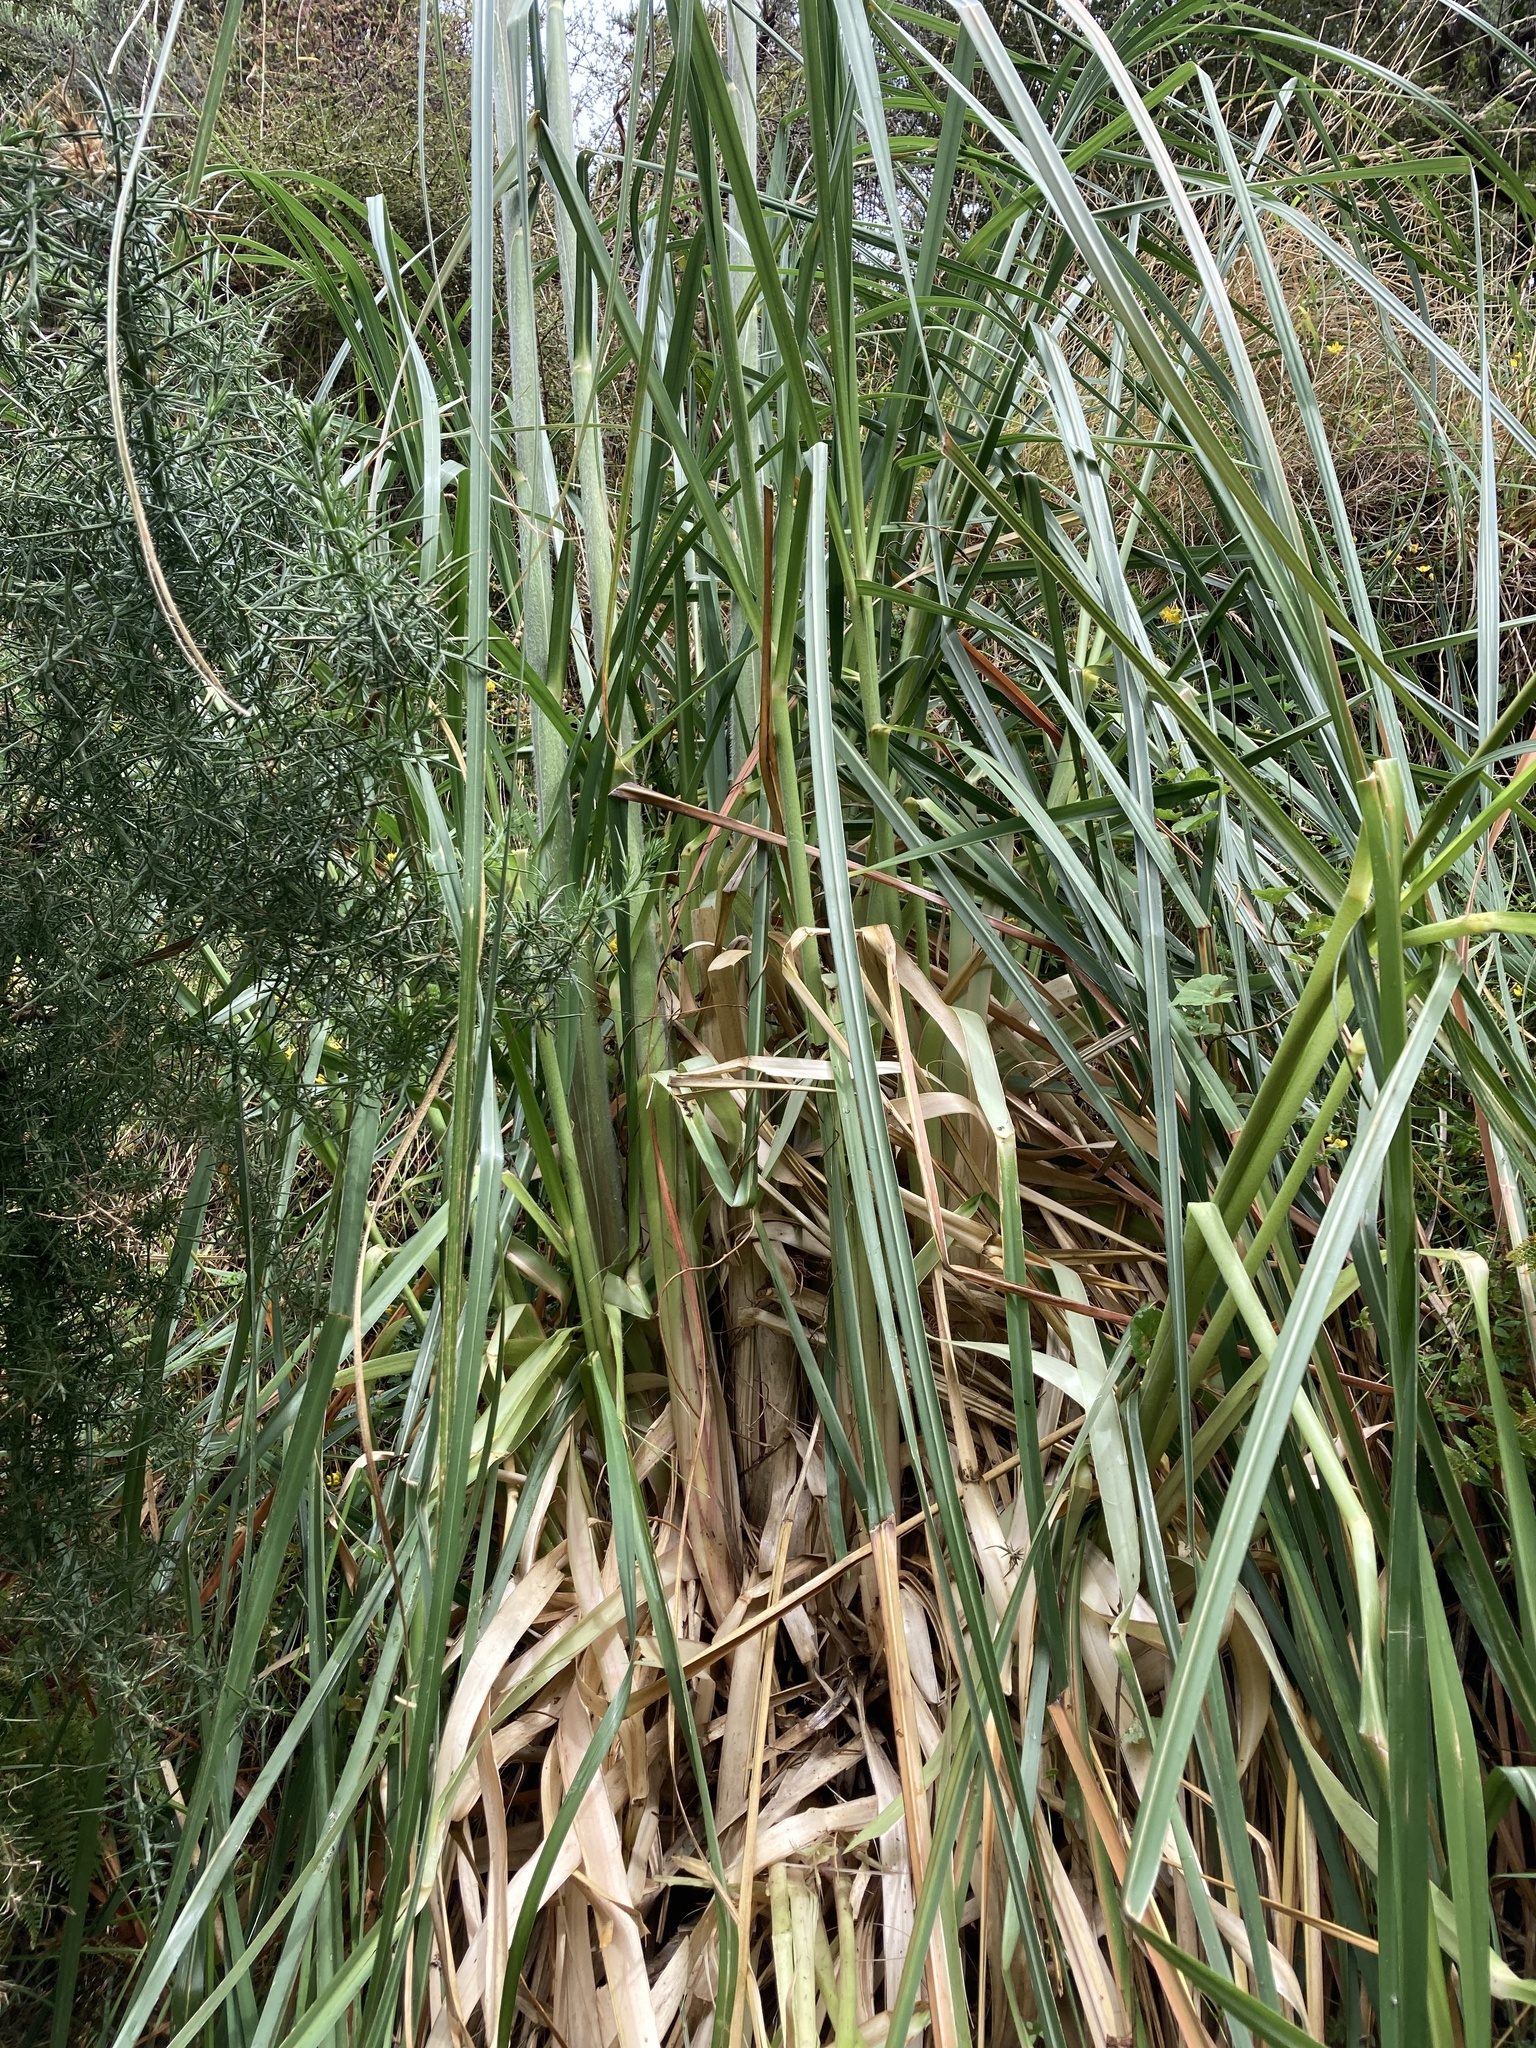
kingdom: Plantae
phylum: Tracheophyta
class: Liliopsida
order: Poales
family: Poaceae
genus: Cortaderia
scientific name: Cortaderia jubata
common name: Purple pampas grass
